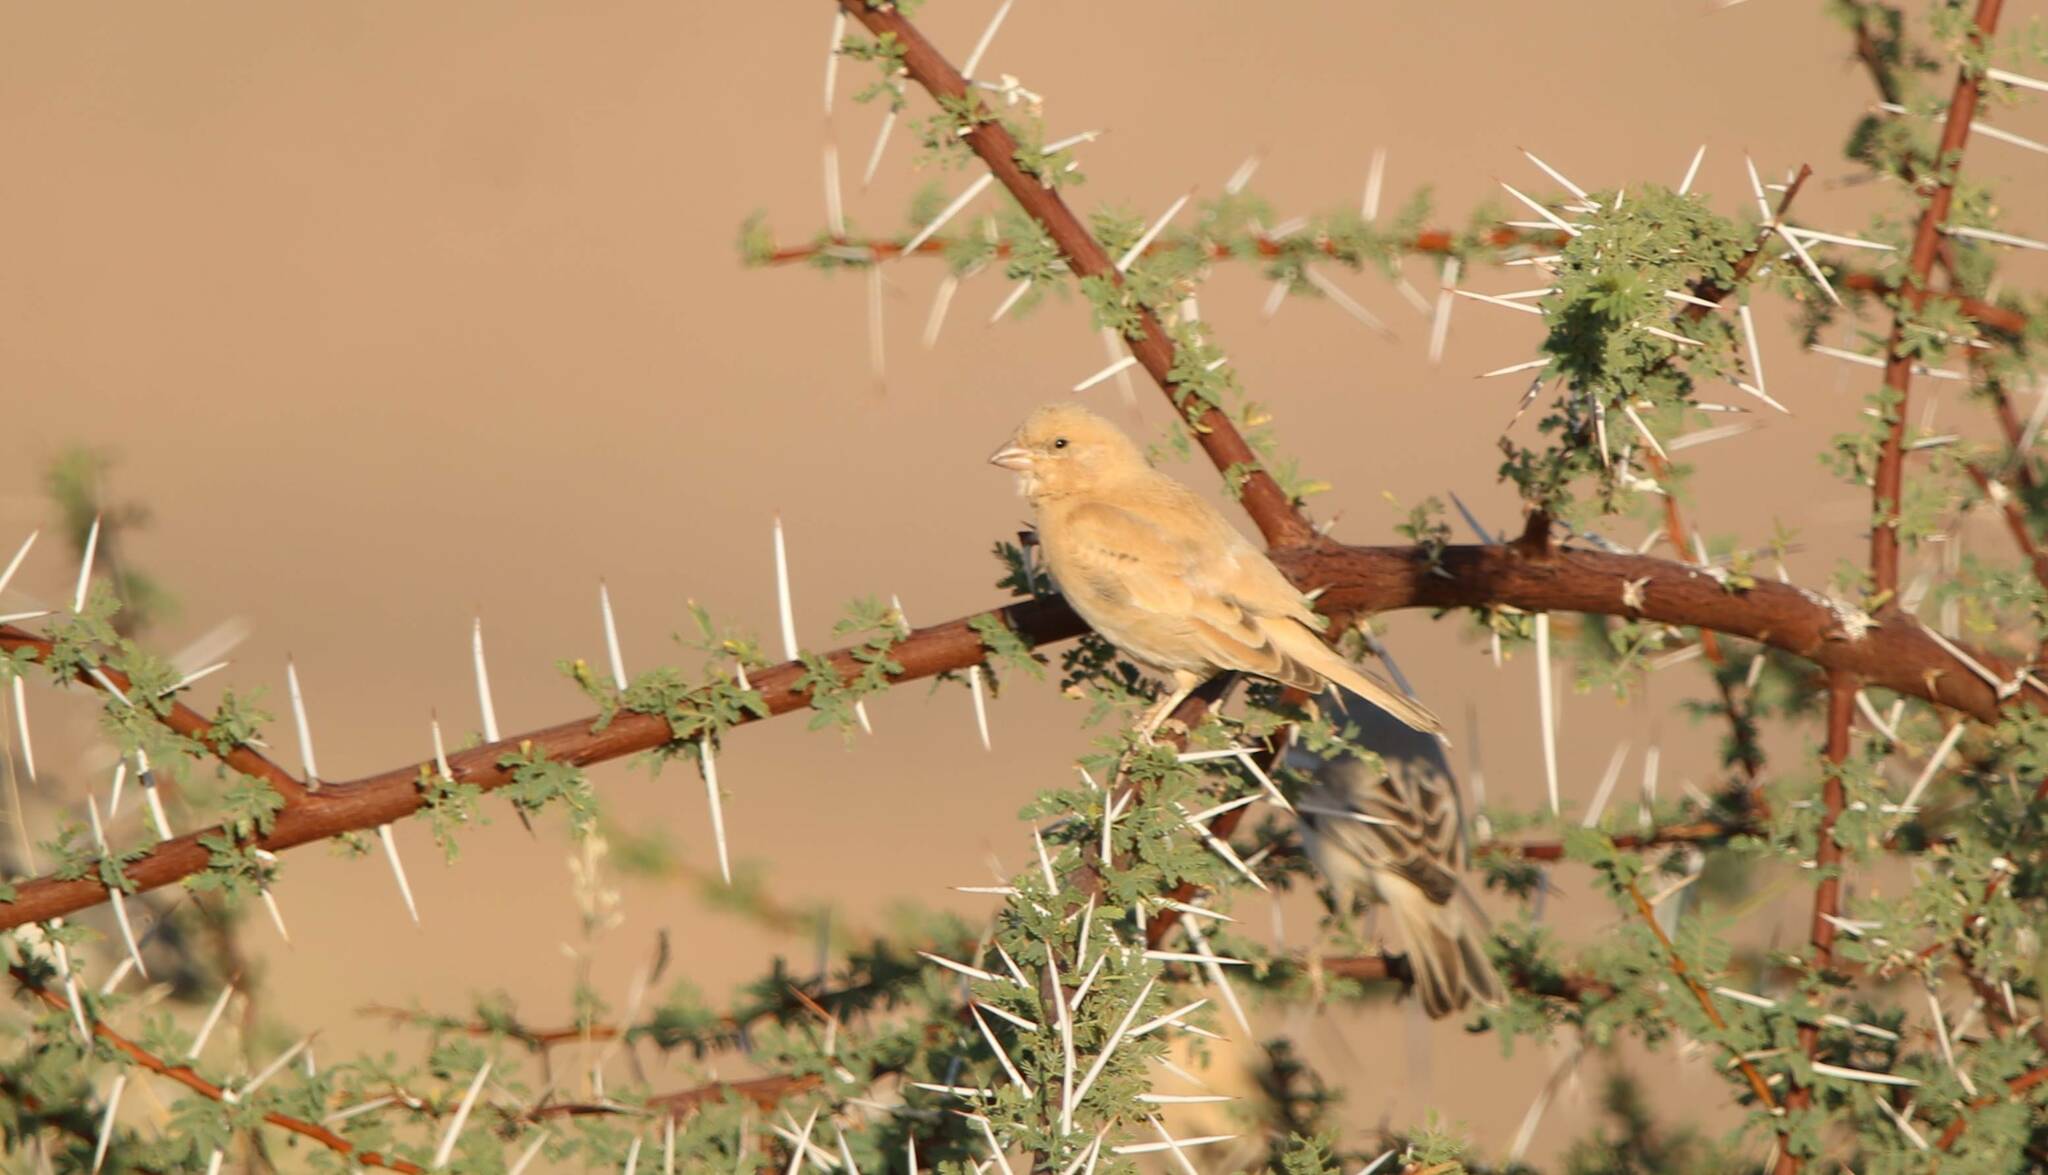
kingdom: Animalia
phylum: Chordata
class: Aves
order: Passeriformes
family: Passeridae
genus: Passer
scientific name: Passer simplex
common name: Desert sparrow
